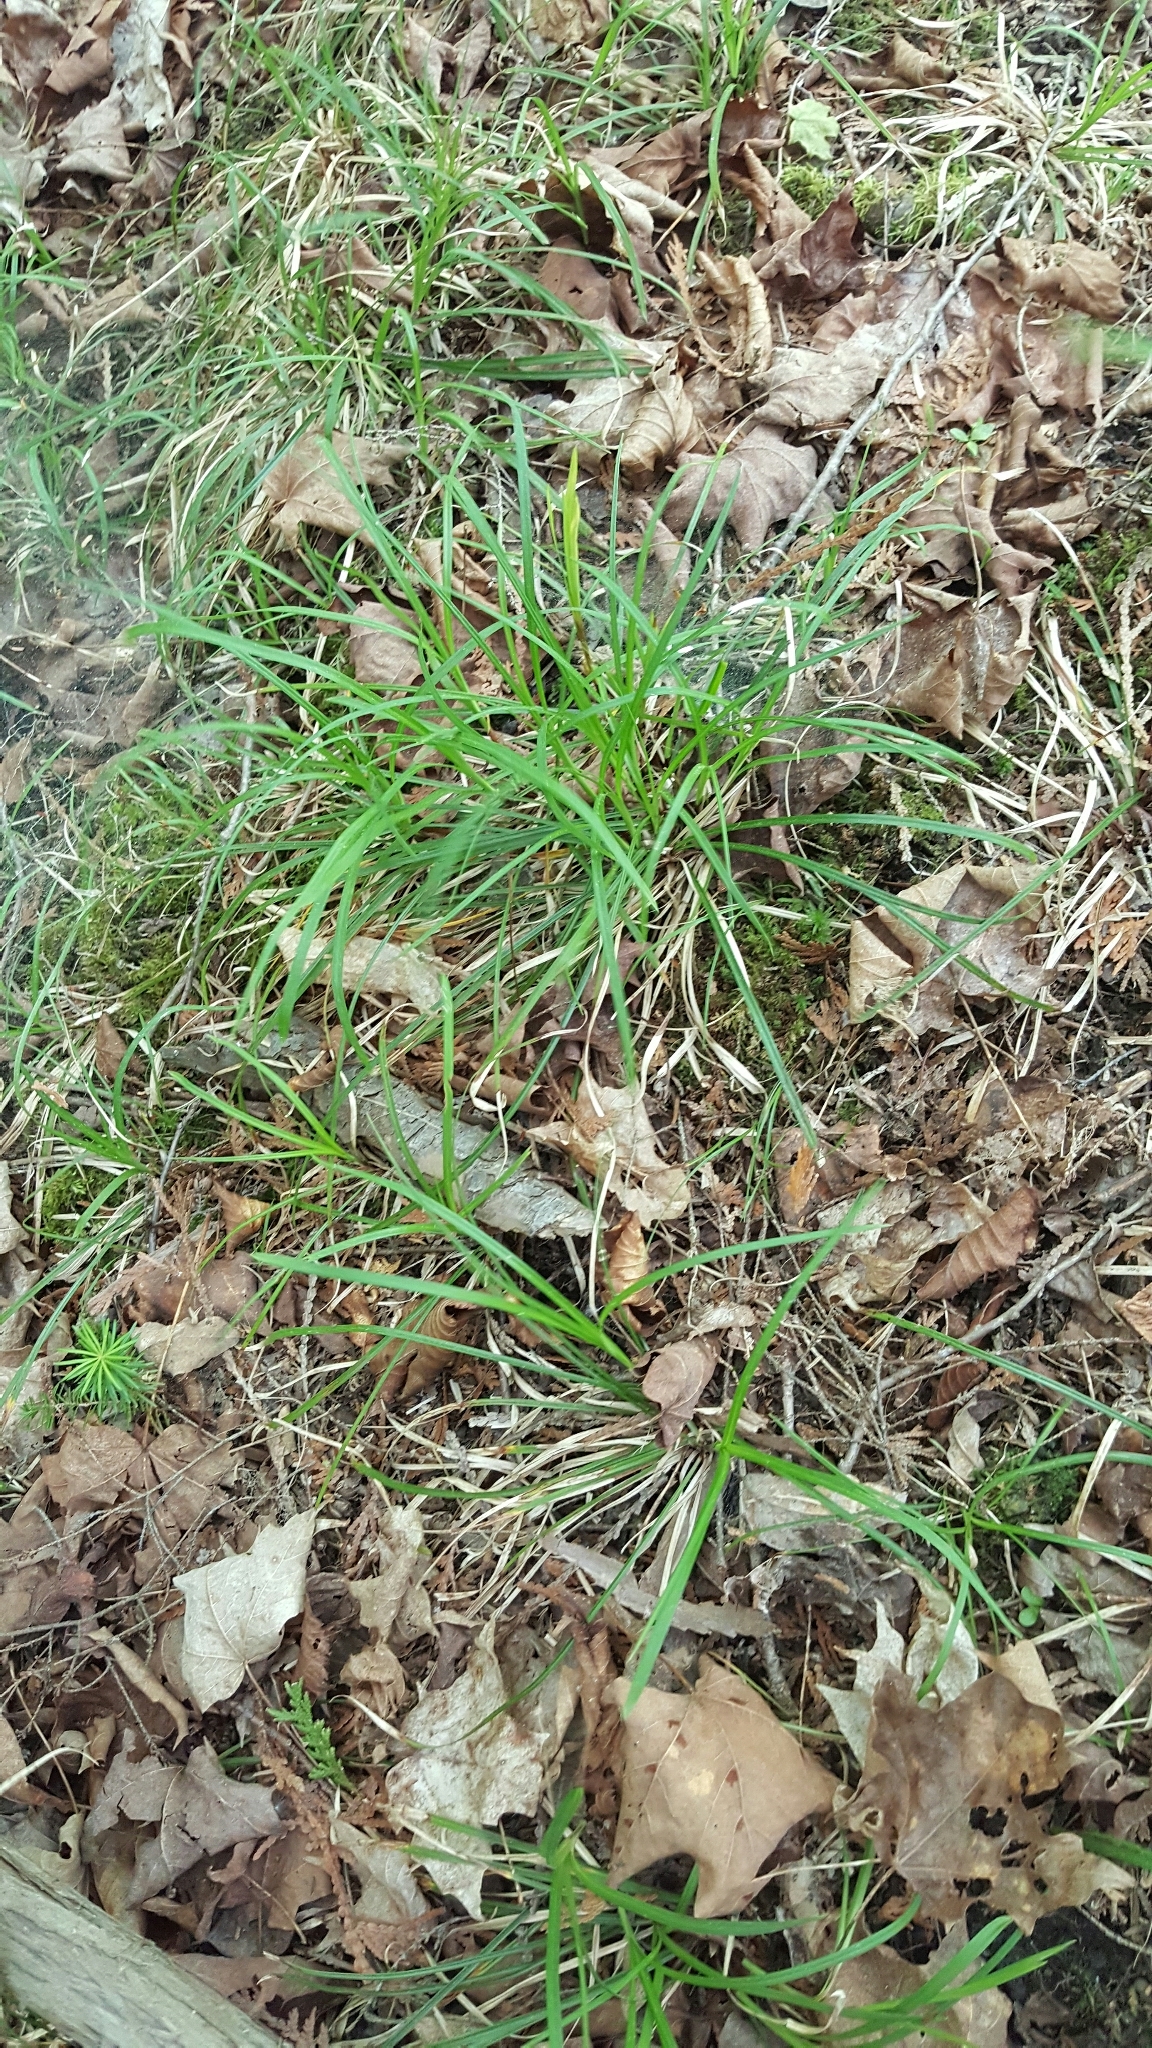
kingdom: Plantae
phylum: Tracheophyta
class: Liliopsida
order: Poales
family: Cyperaceae
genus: Carex
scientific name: Carex pedunculata
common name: Pedunculate sedge
